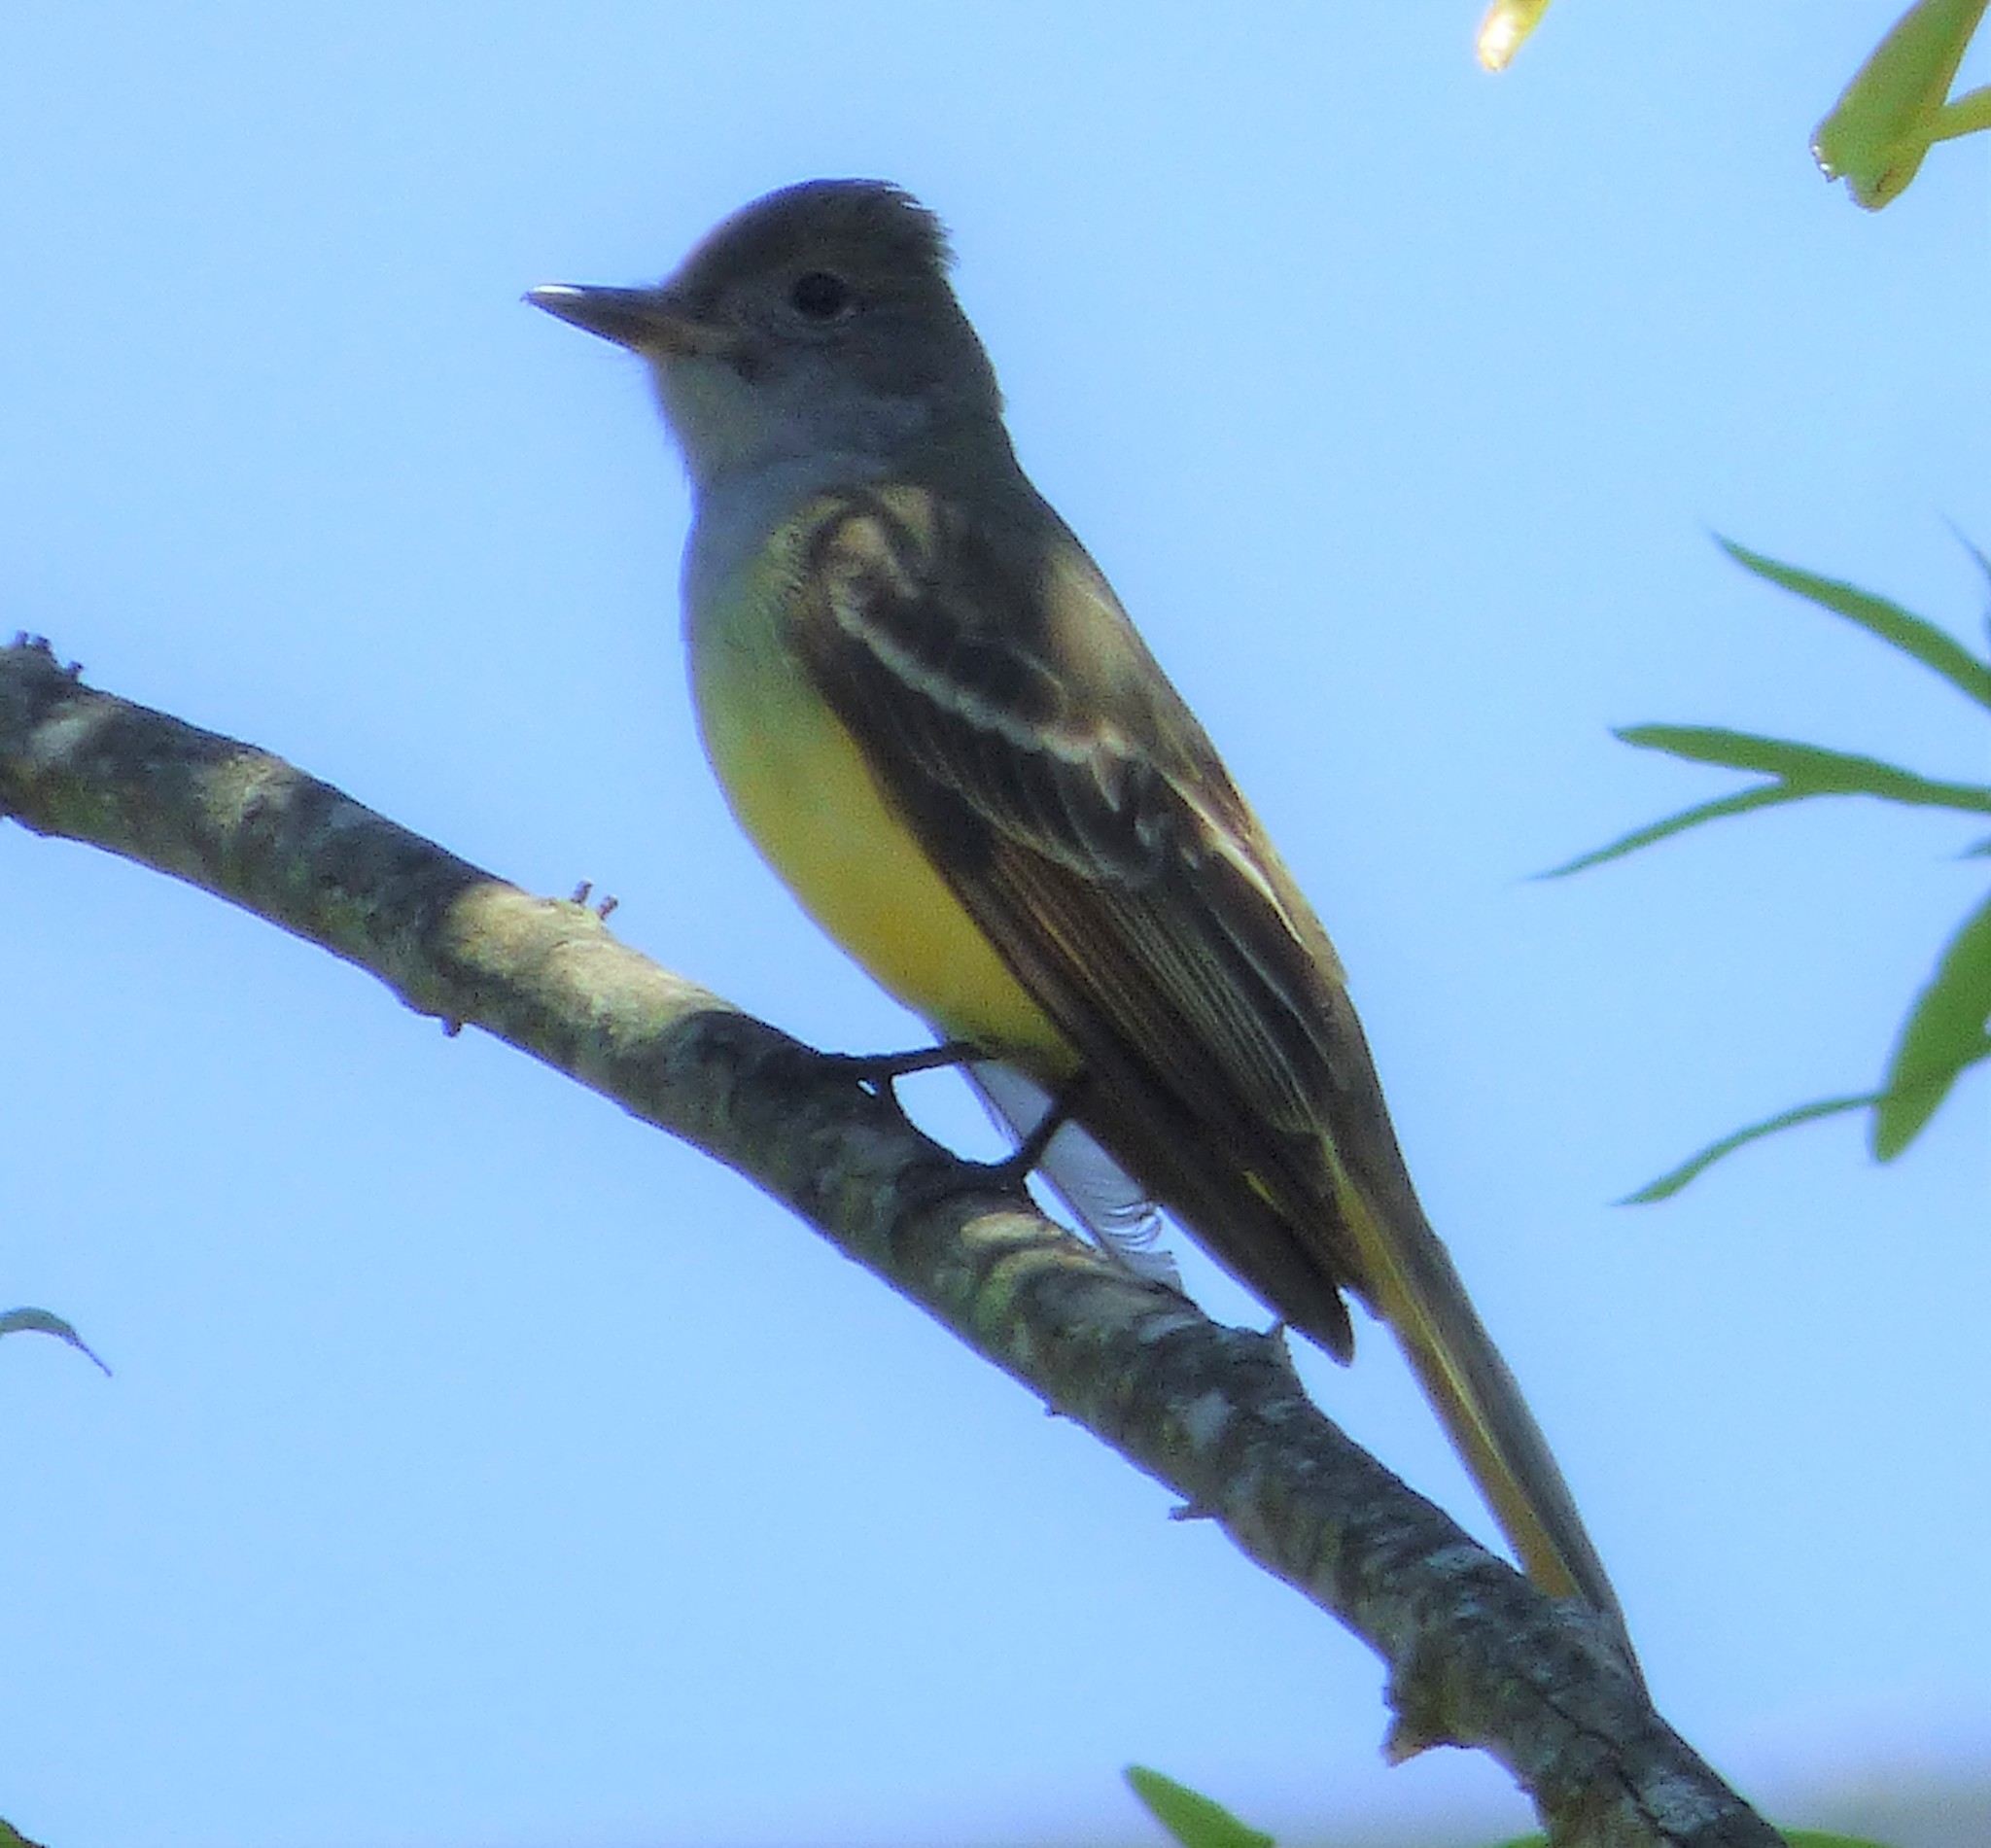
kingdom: Animalia
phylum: Chordata
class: Aves
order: Passeriformes
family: Tyrannidae
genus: Myiarchus
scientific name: Myiarchus crinitus
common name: Great crested flycatcher
